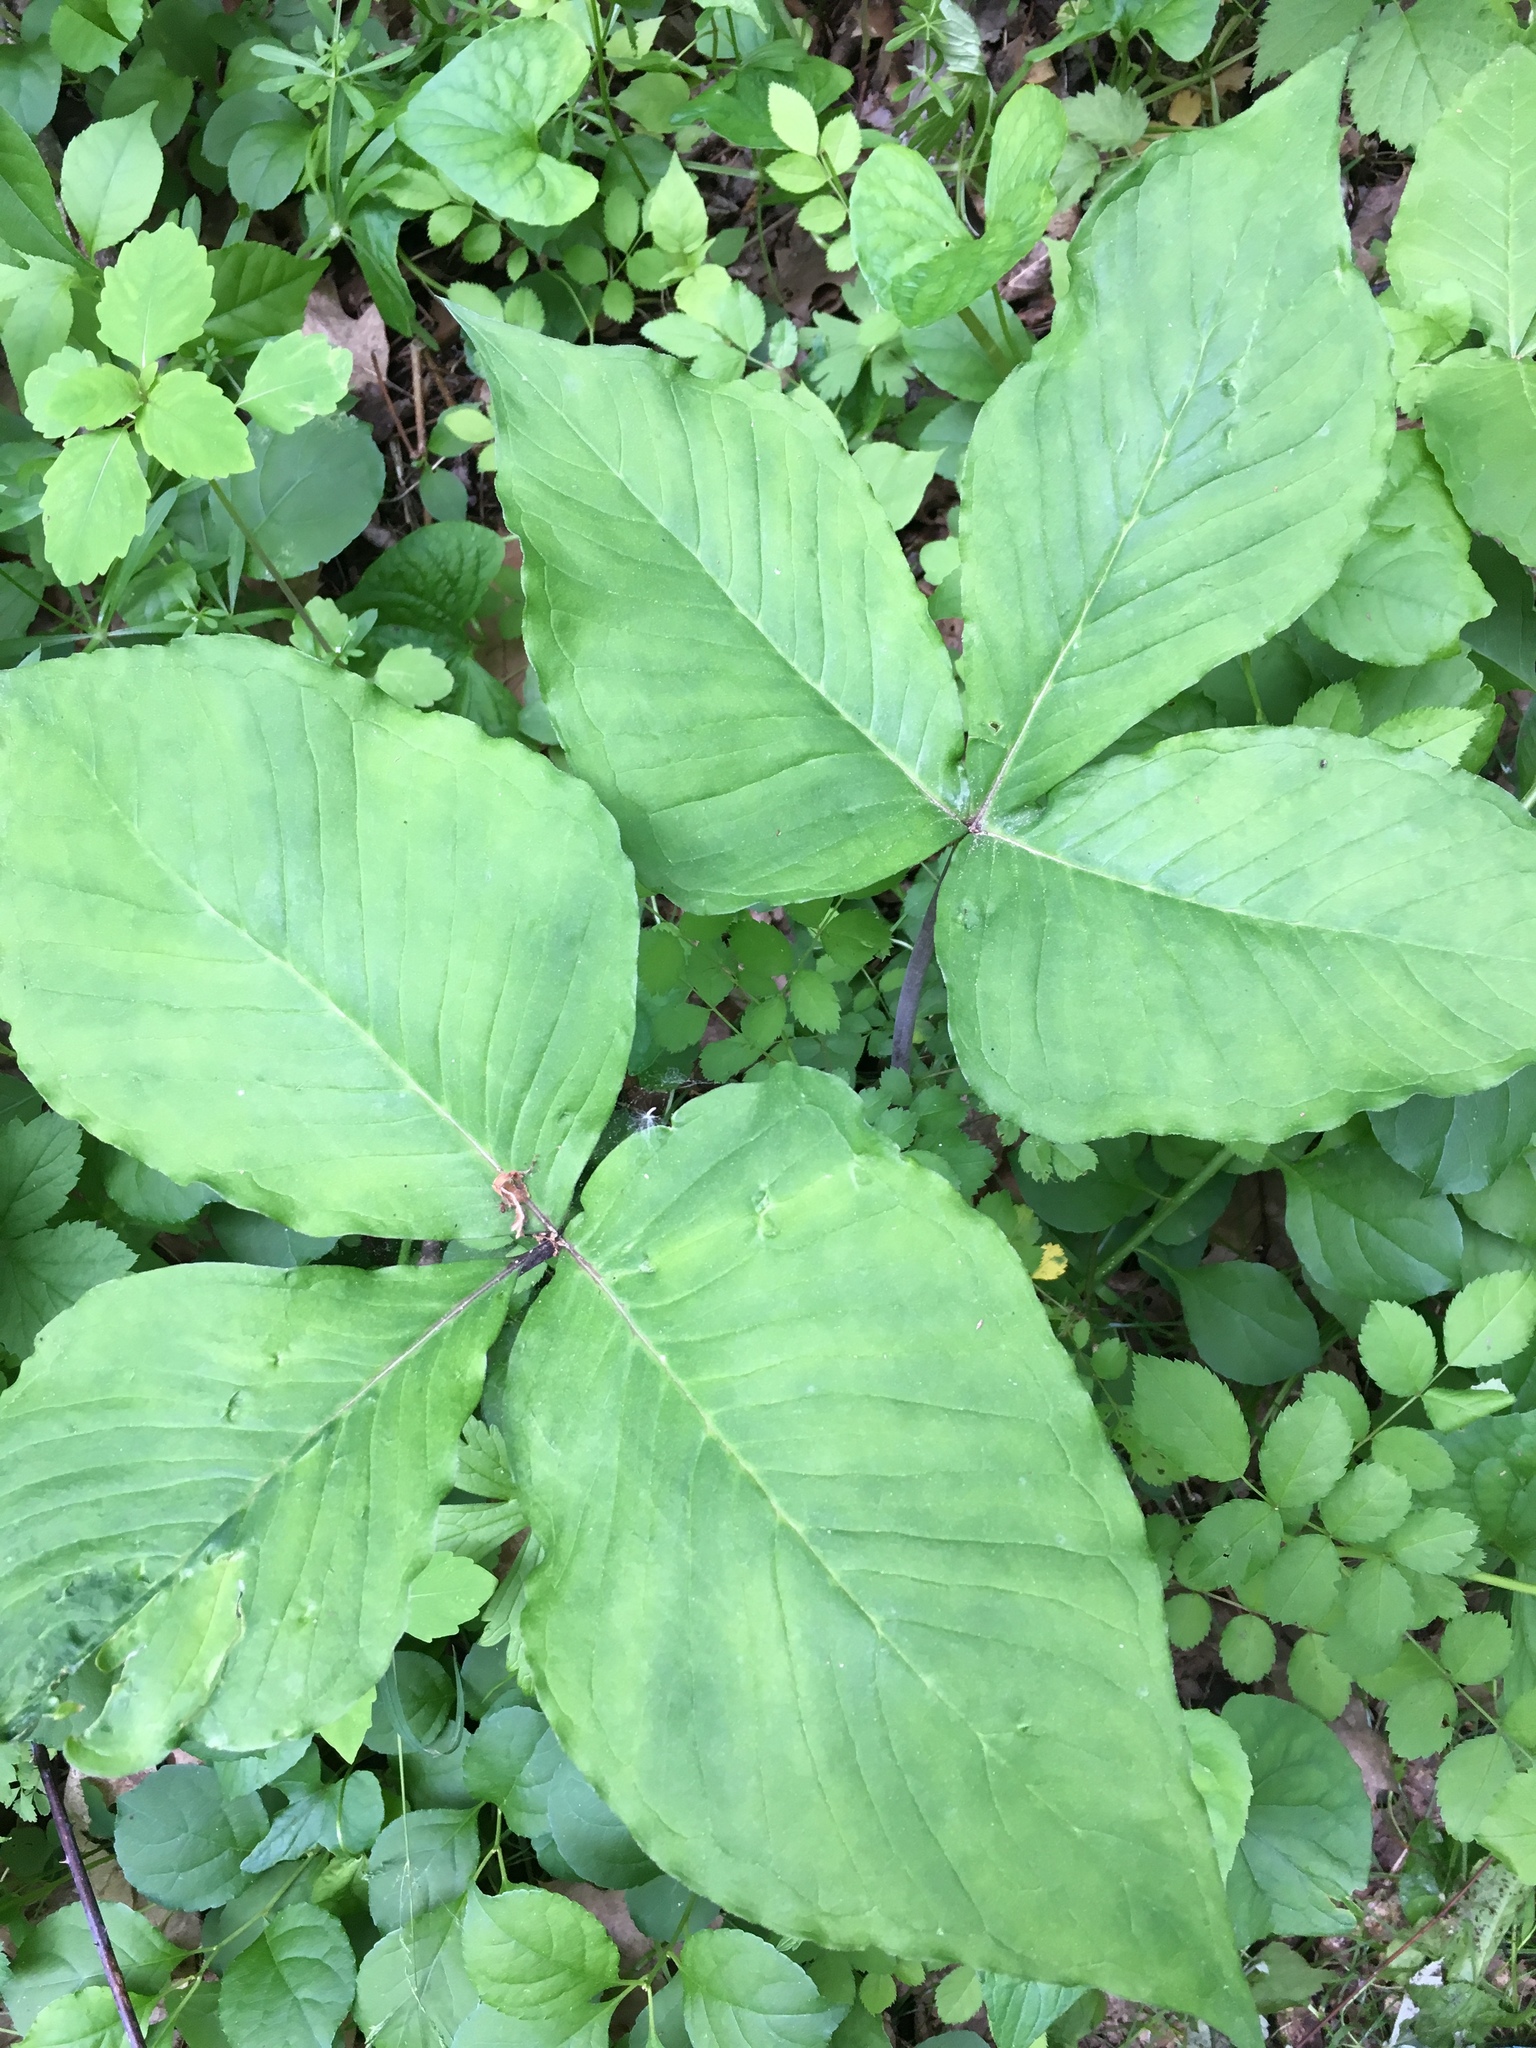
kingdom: Plantae
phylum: Tracheophyta
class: Liliopsida
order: Alismatales
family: Araceae
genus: Arisaema
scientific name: Arisaema triphyllum
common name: Jack-in-the-pulpit
